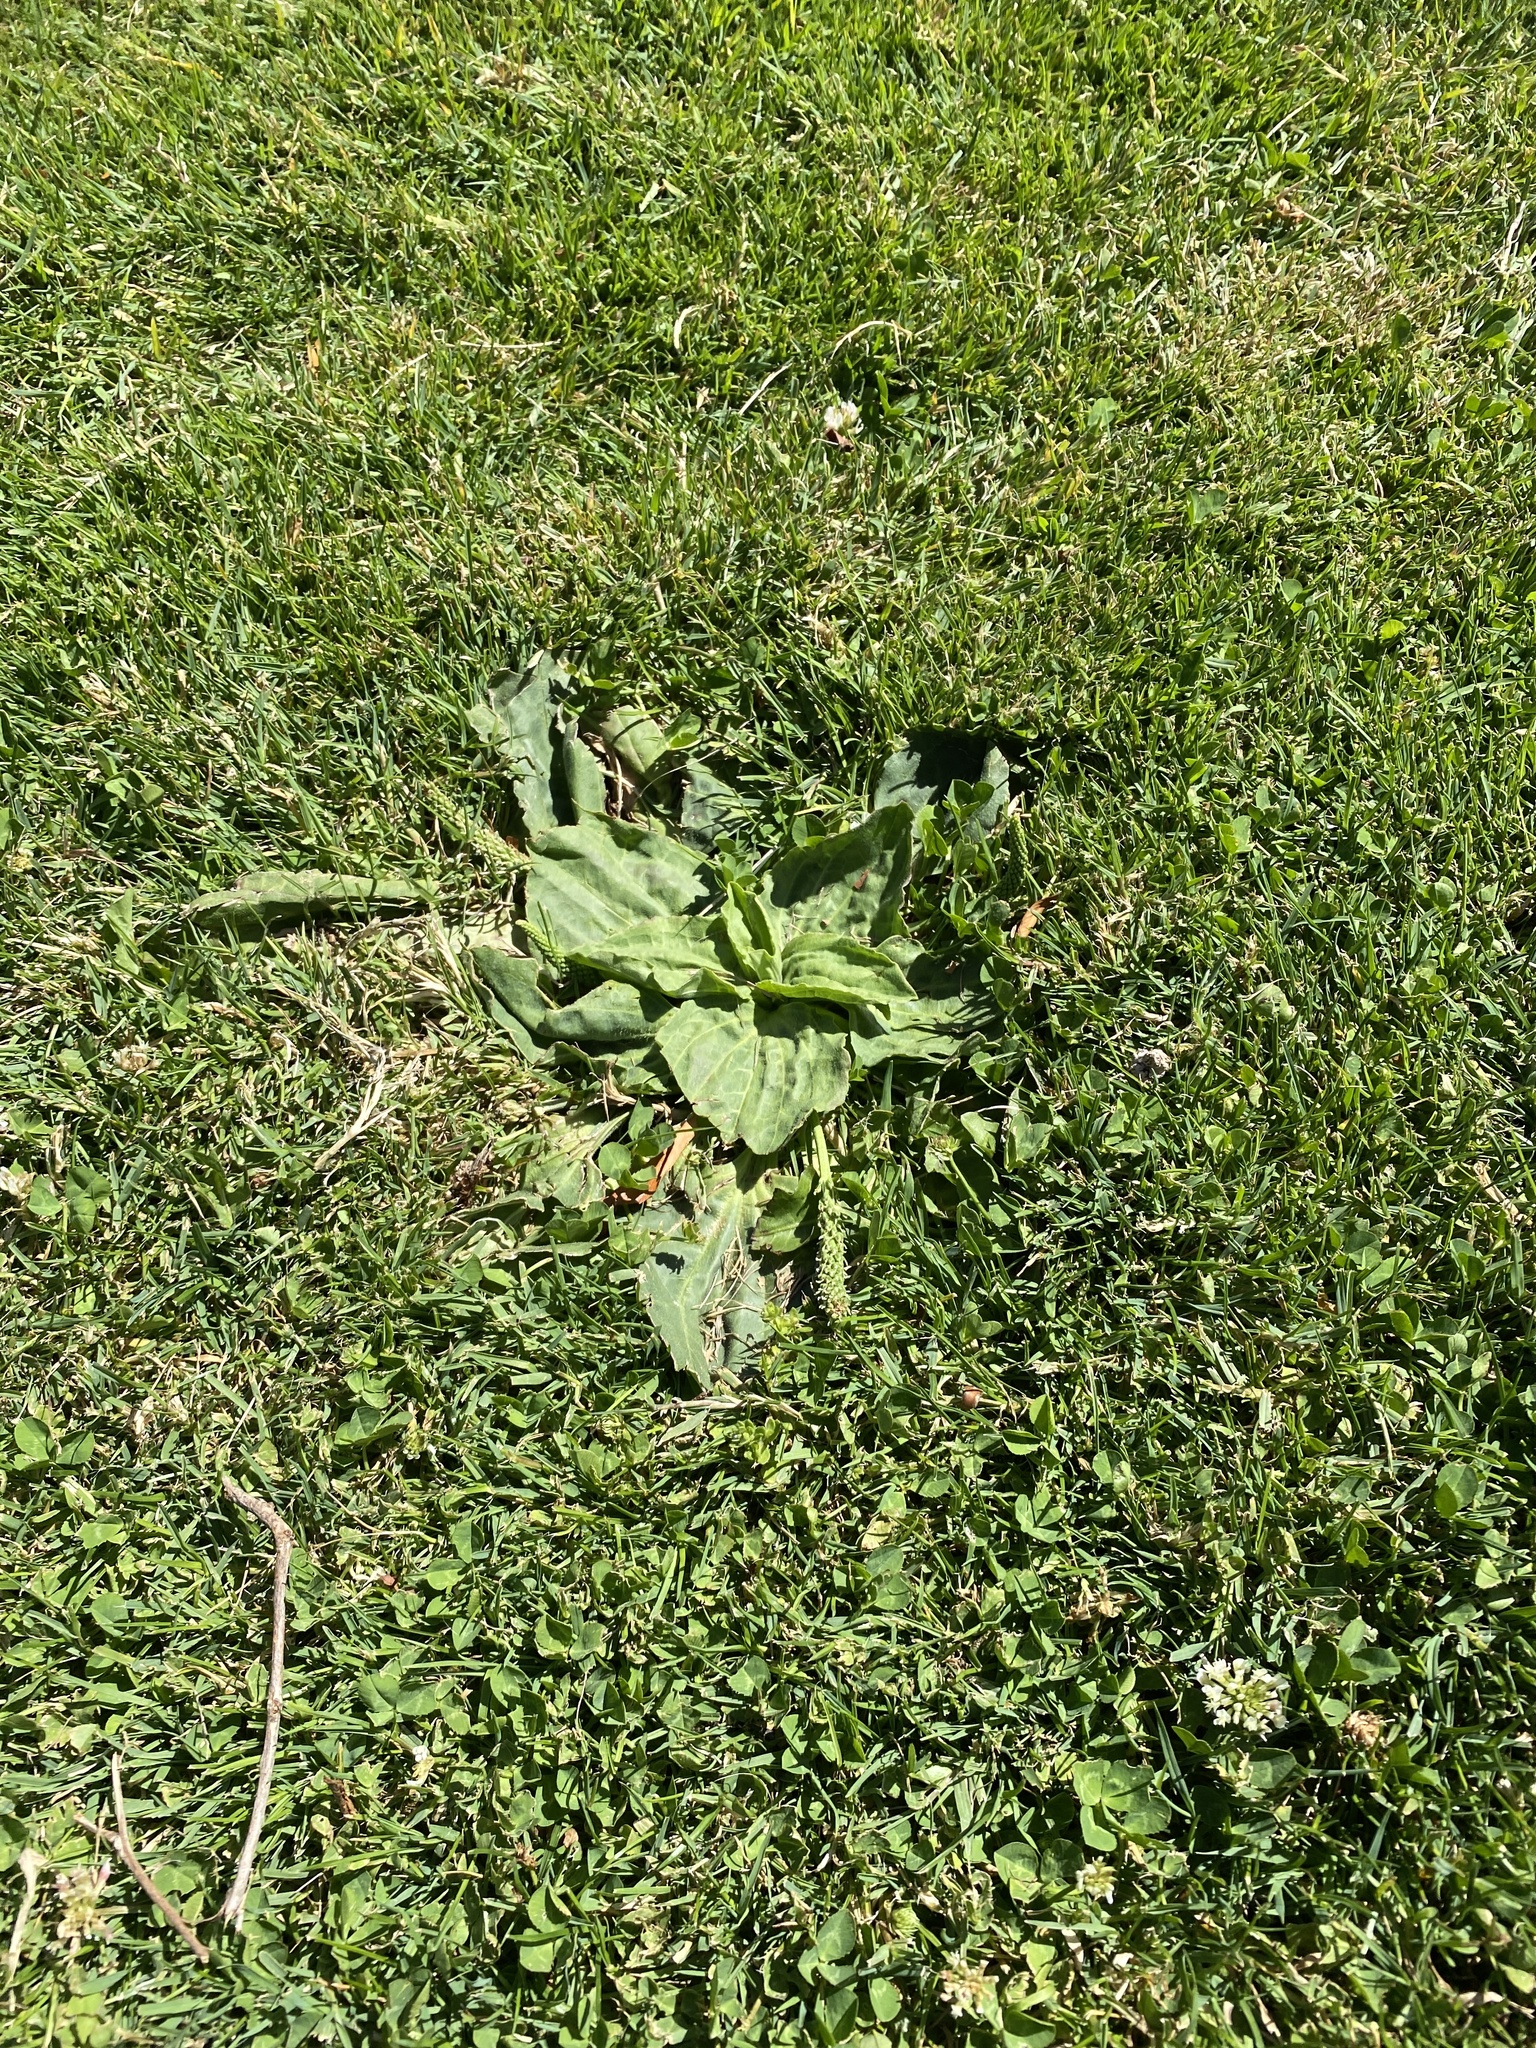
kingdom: Plantae
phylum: Tracheophyta
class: Magnoliopsida
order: Lamiales
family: Plantaginaceae
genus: Plantago
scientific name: Plantago major
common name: Common plantain
